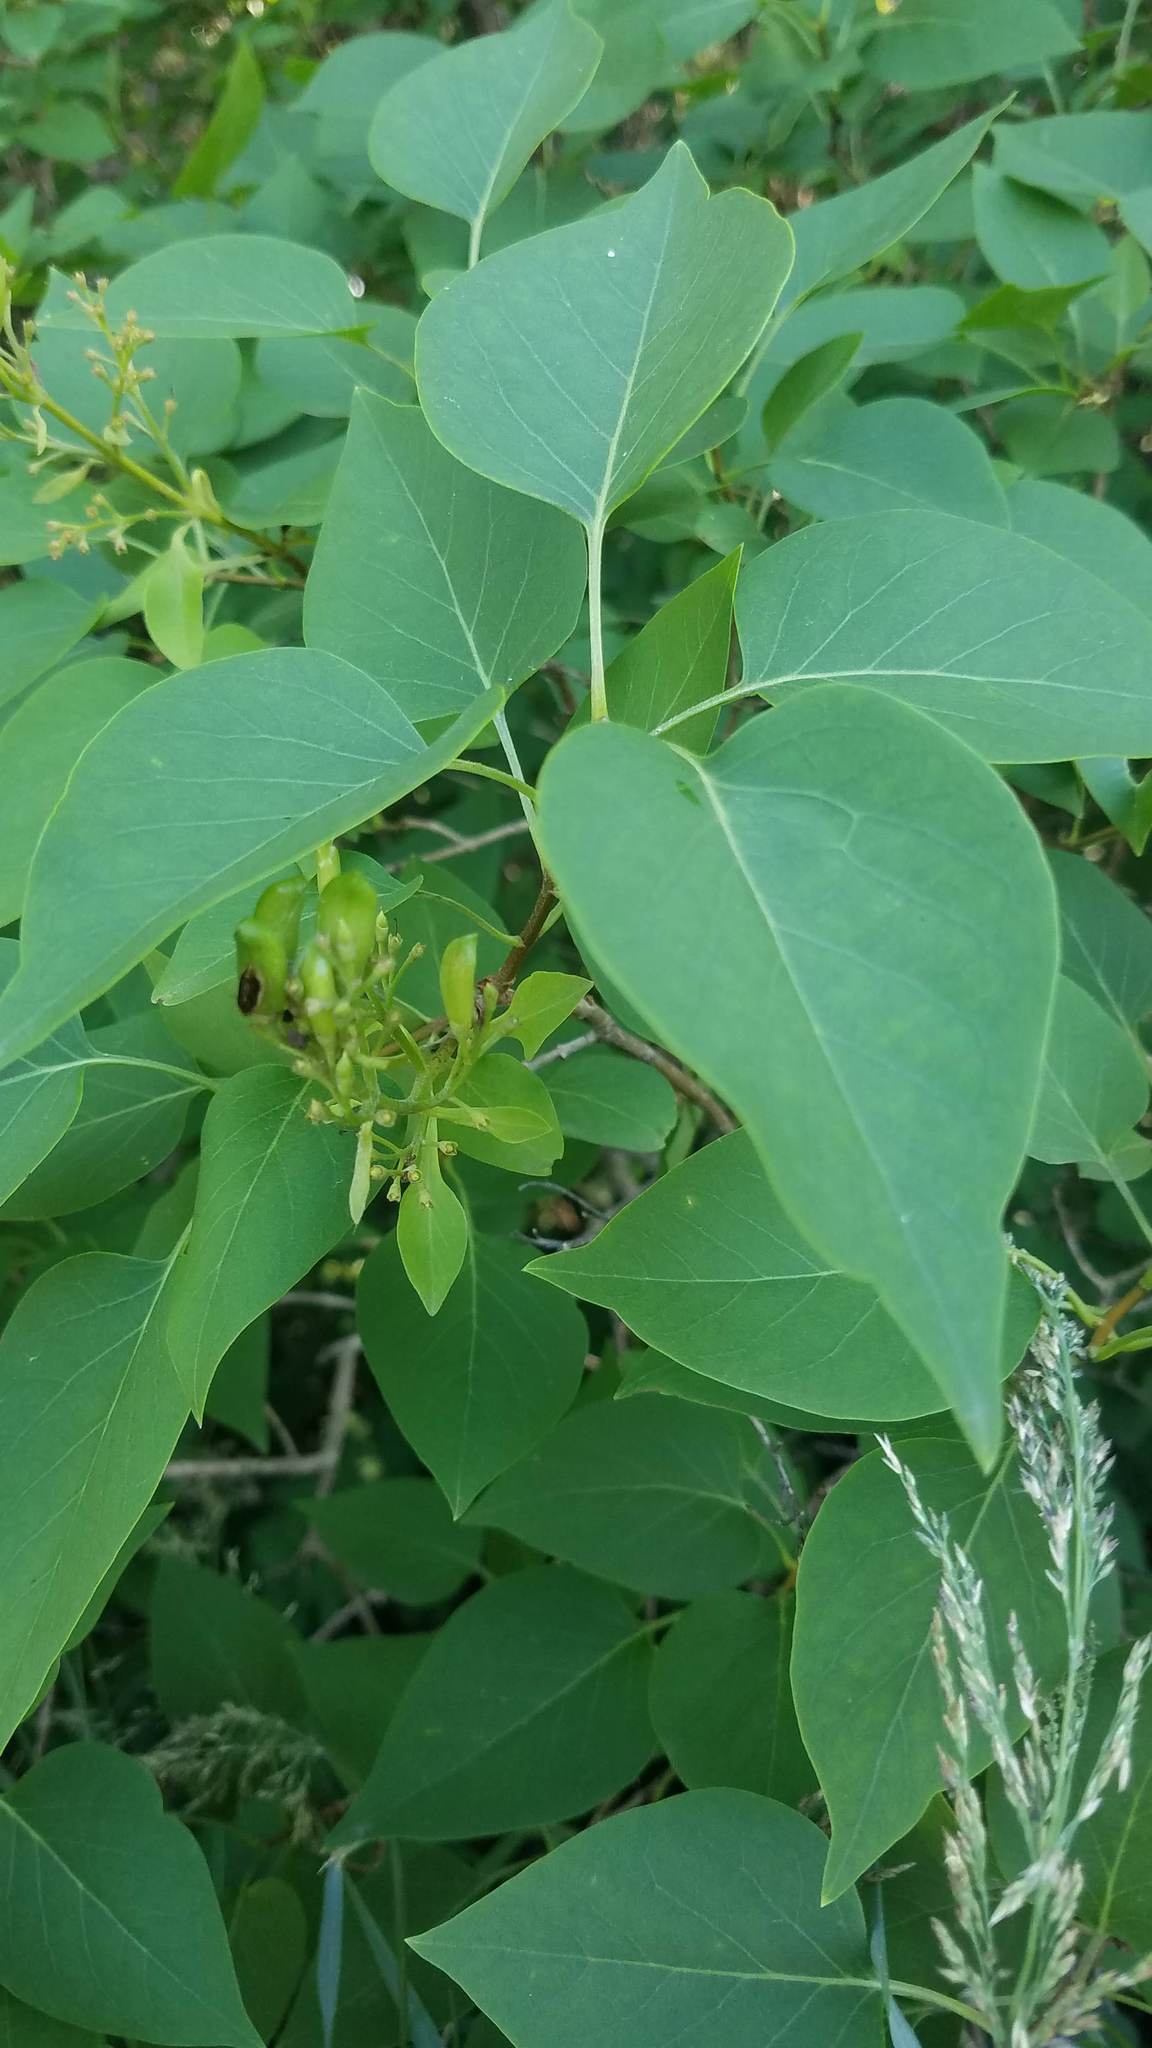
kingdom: Plantae
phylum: Tracheophyta
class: Magnoliopsida
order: Lamiales
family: Oleaceae
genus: Syringa
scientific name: Syringa vulgaris
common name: Common lilac
